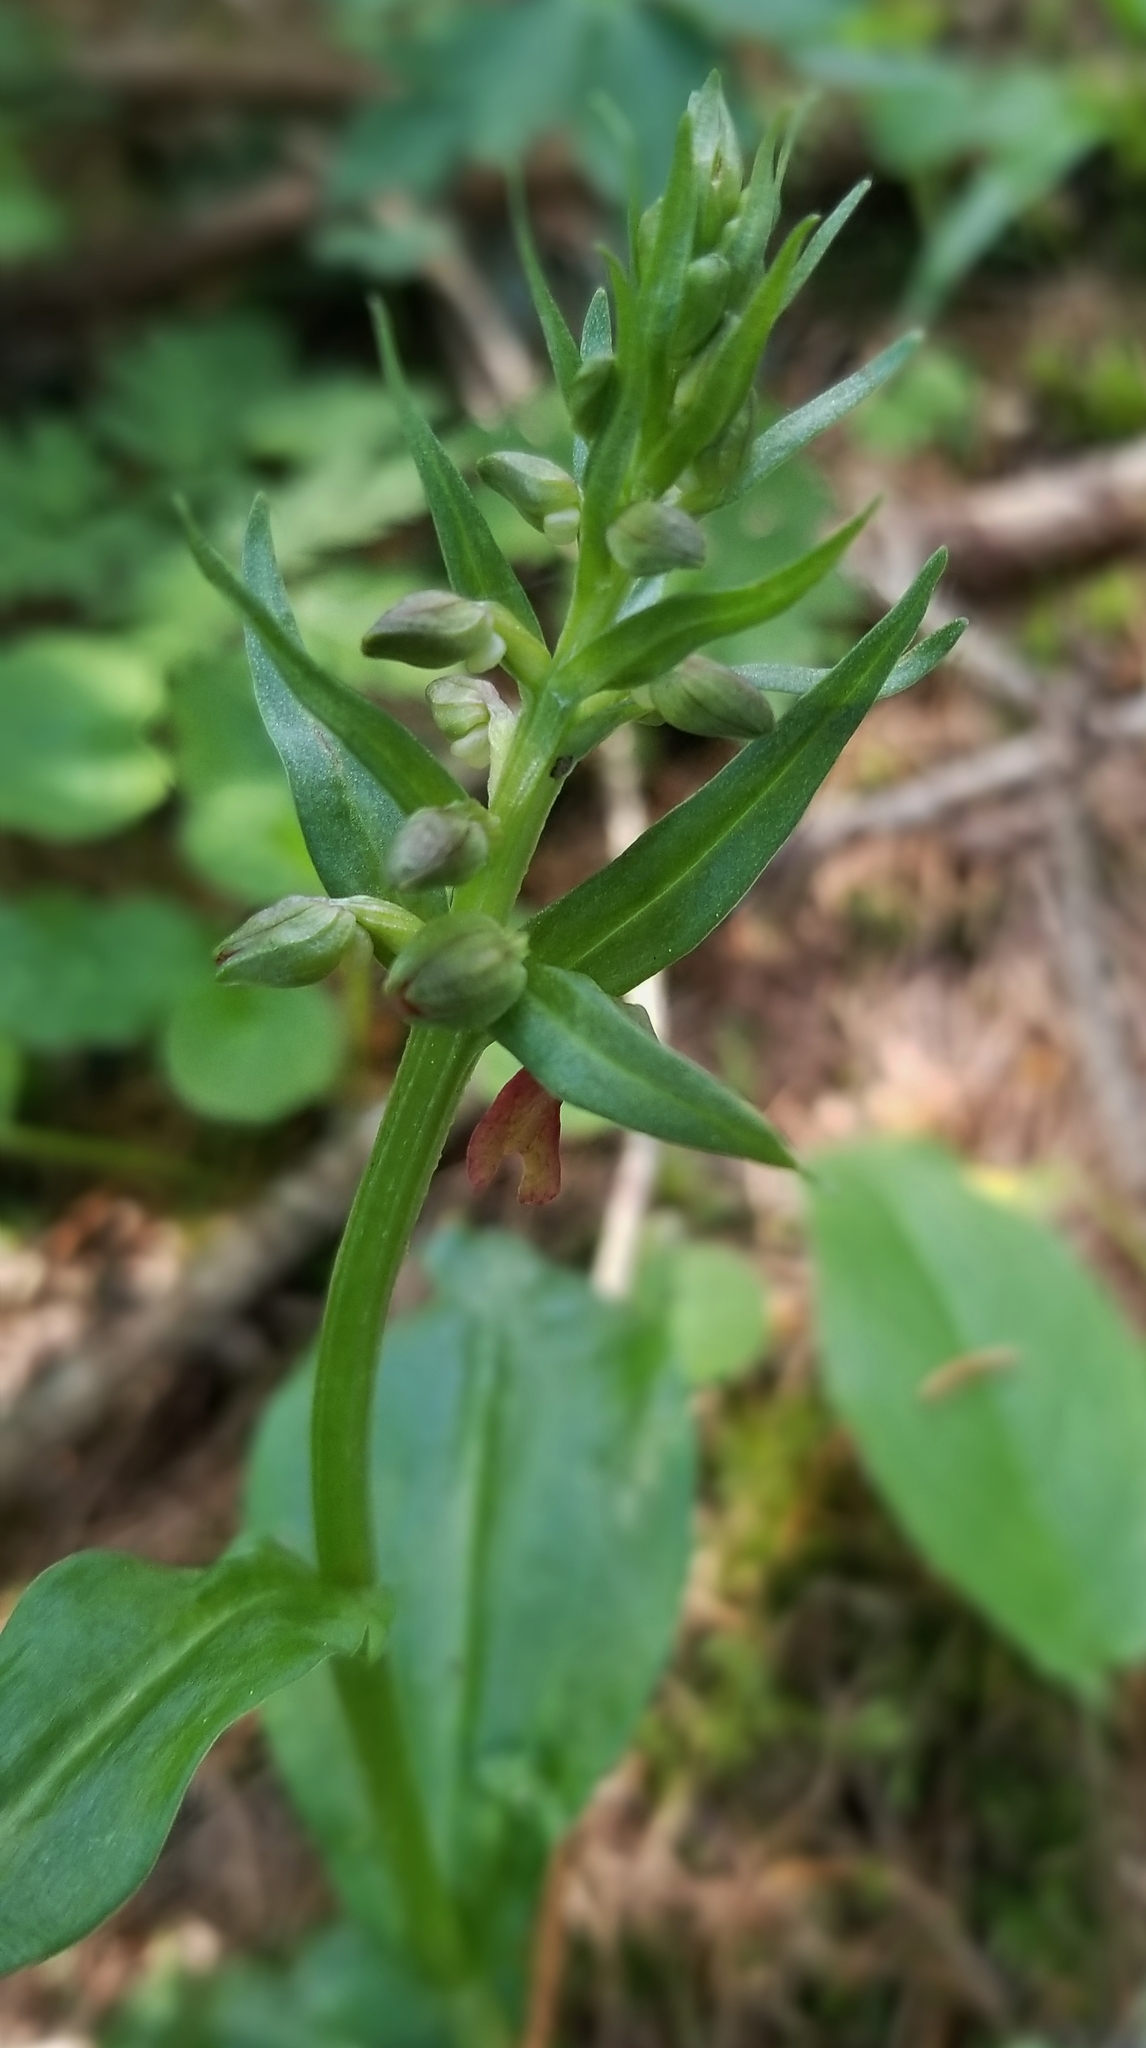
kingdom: Plantae
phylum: Tracheophyta
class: Liliopsida
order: Asparagales
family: Orchidaceae
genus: Dactylorhiza
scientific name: Dactylorhiza viridis
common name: Longbract frog orchid
